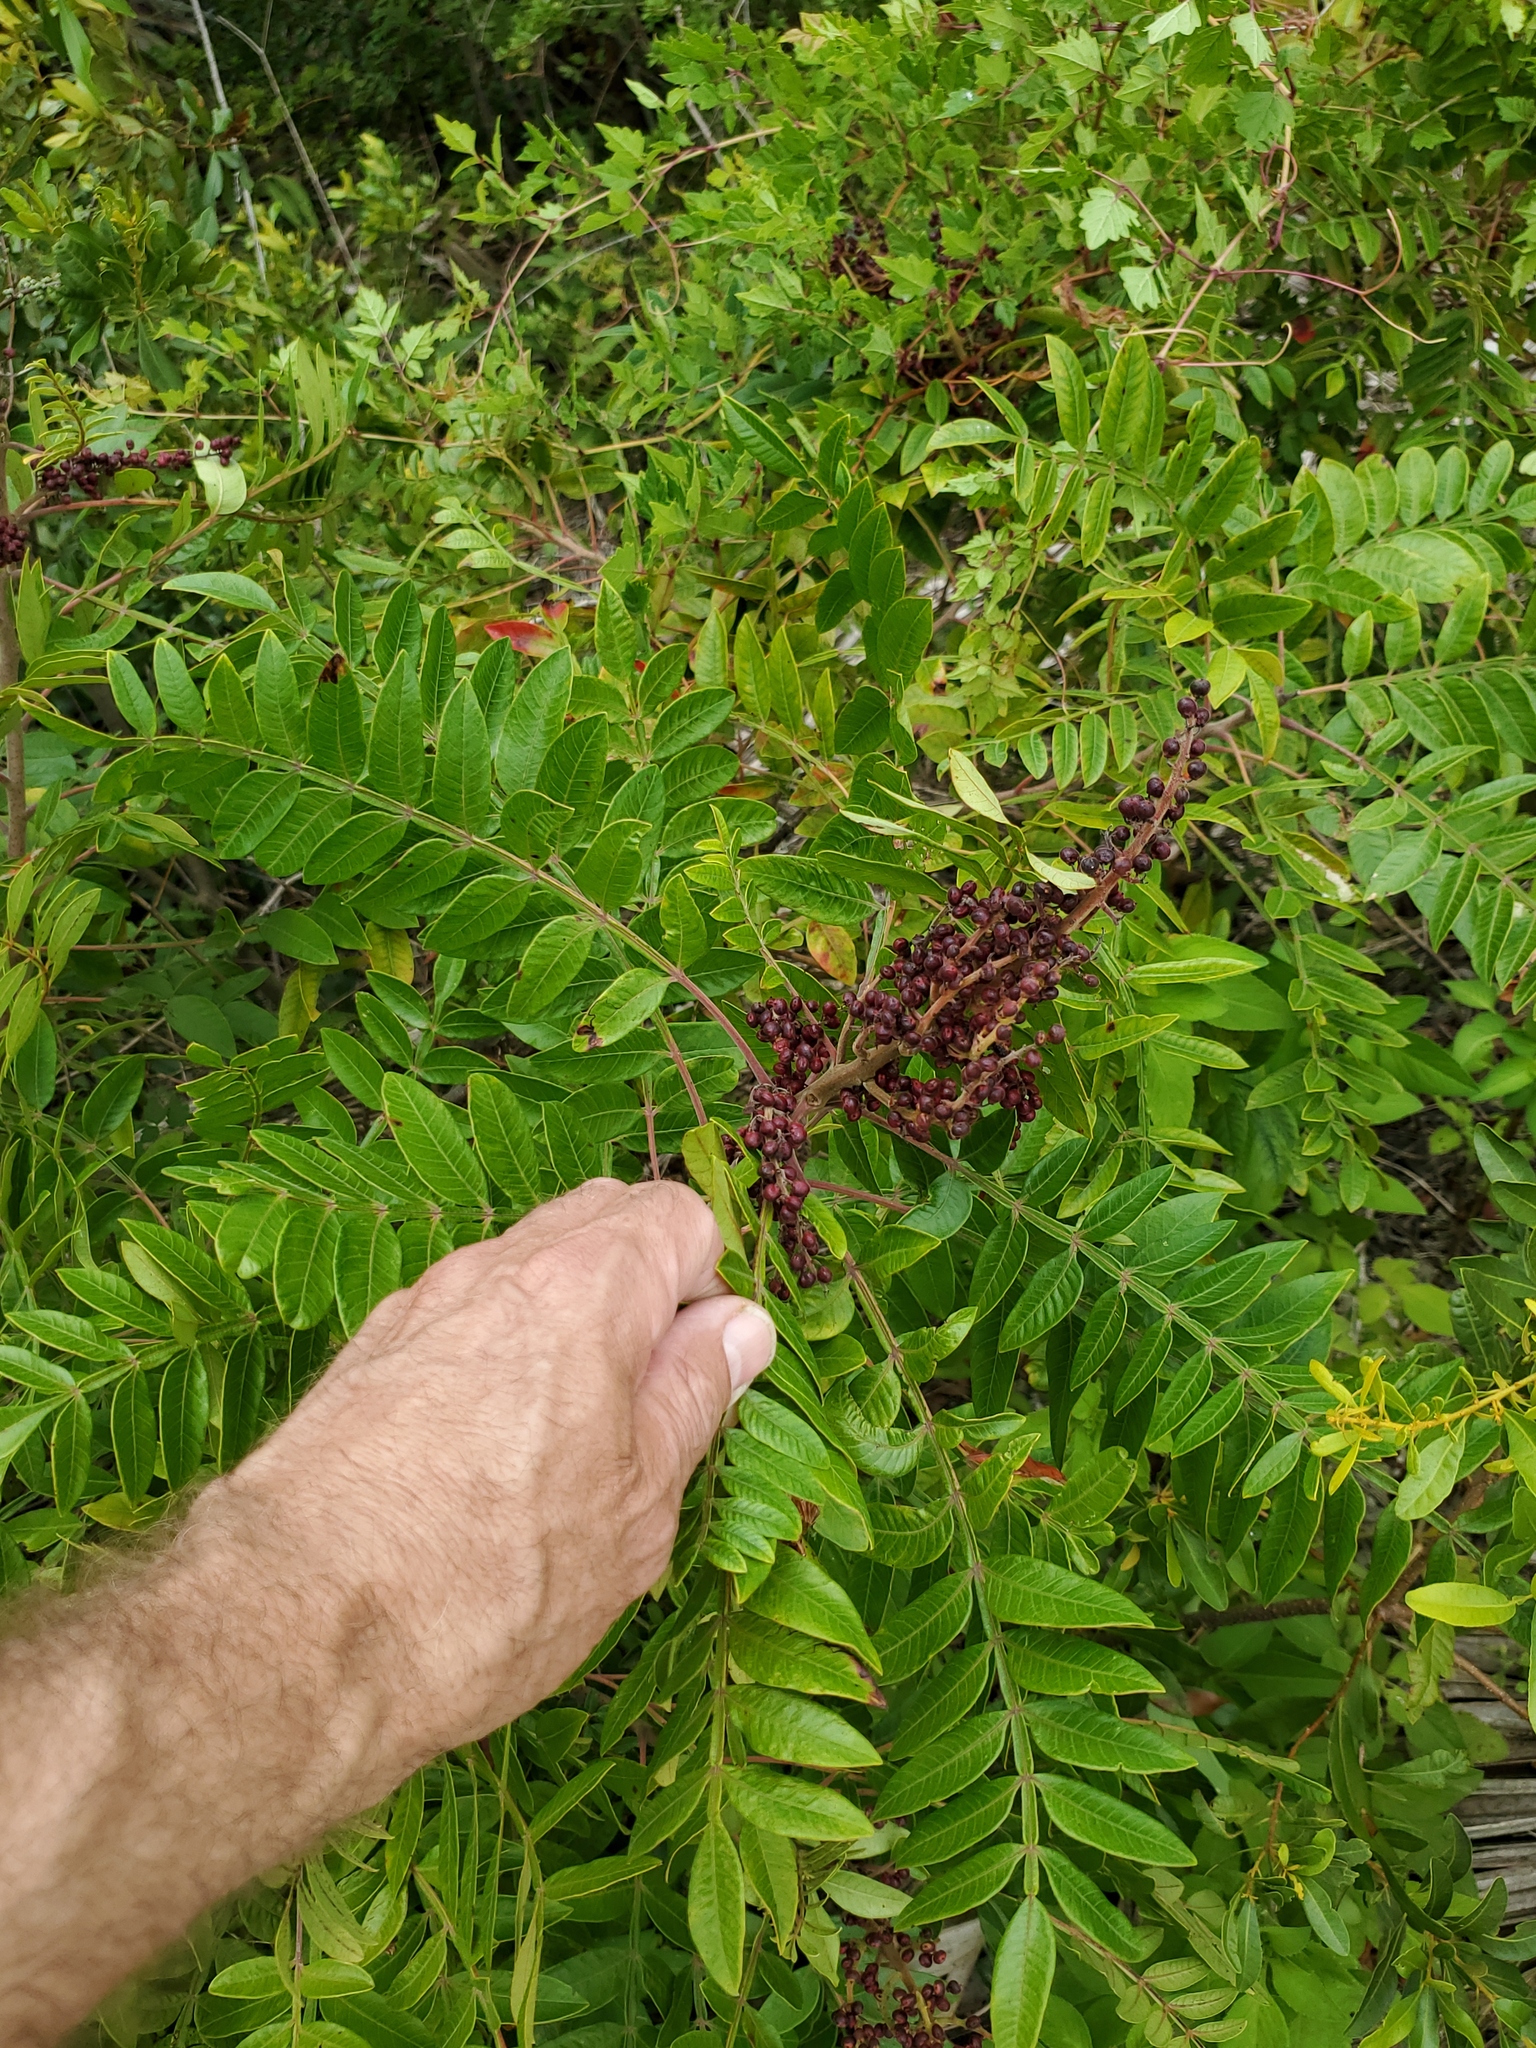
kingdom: Plantae
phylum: Tracheophyta
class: Magnoliopsida
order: Sapindales
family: Anacardiaceae
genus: Rhus
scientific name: Rhus copallina
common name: Shining sumac
